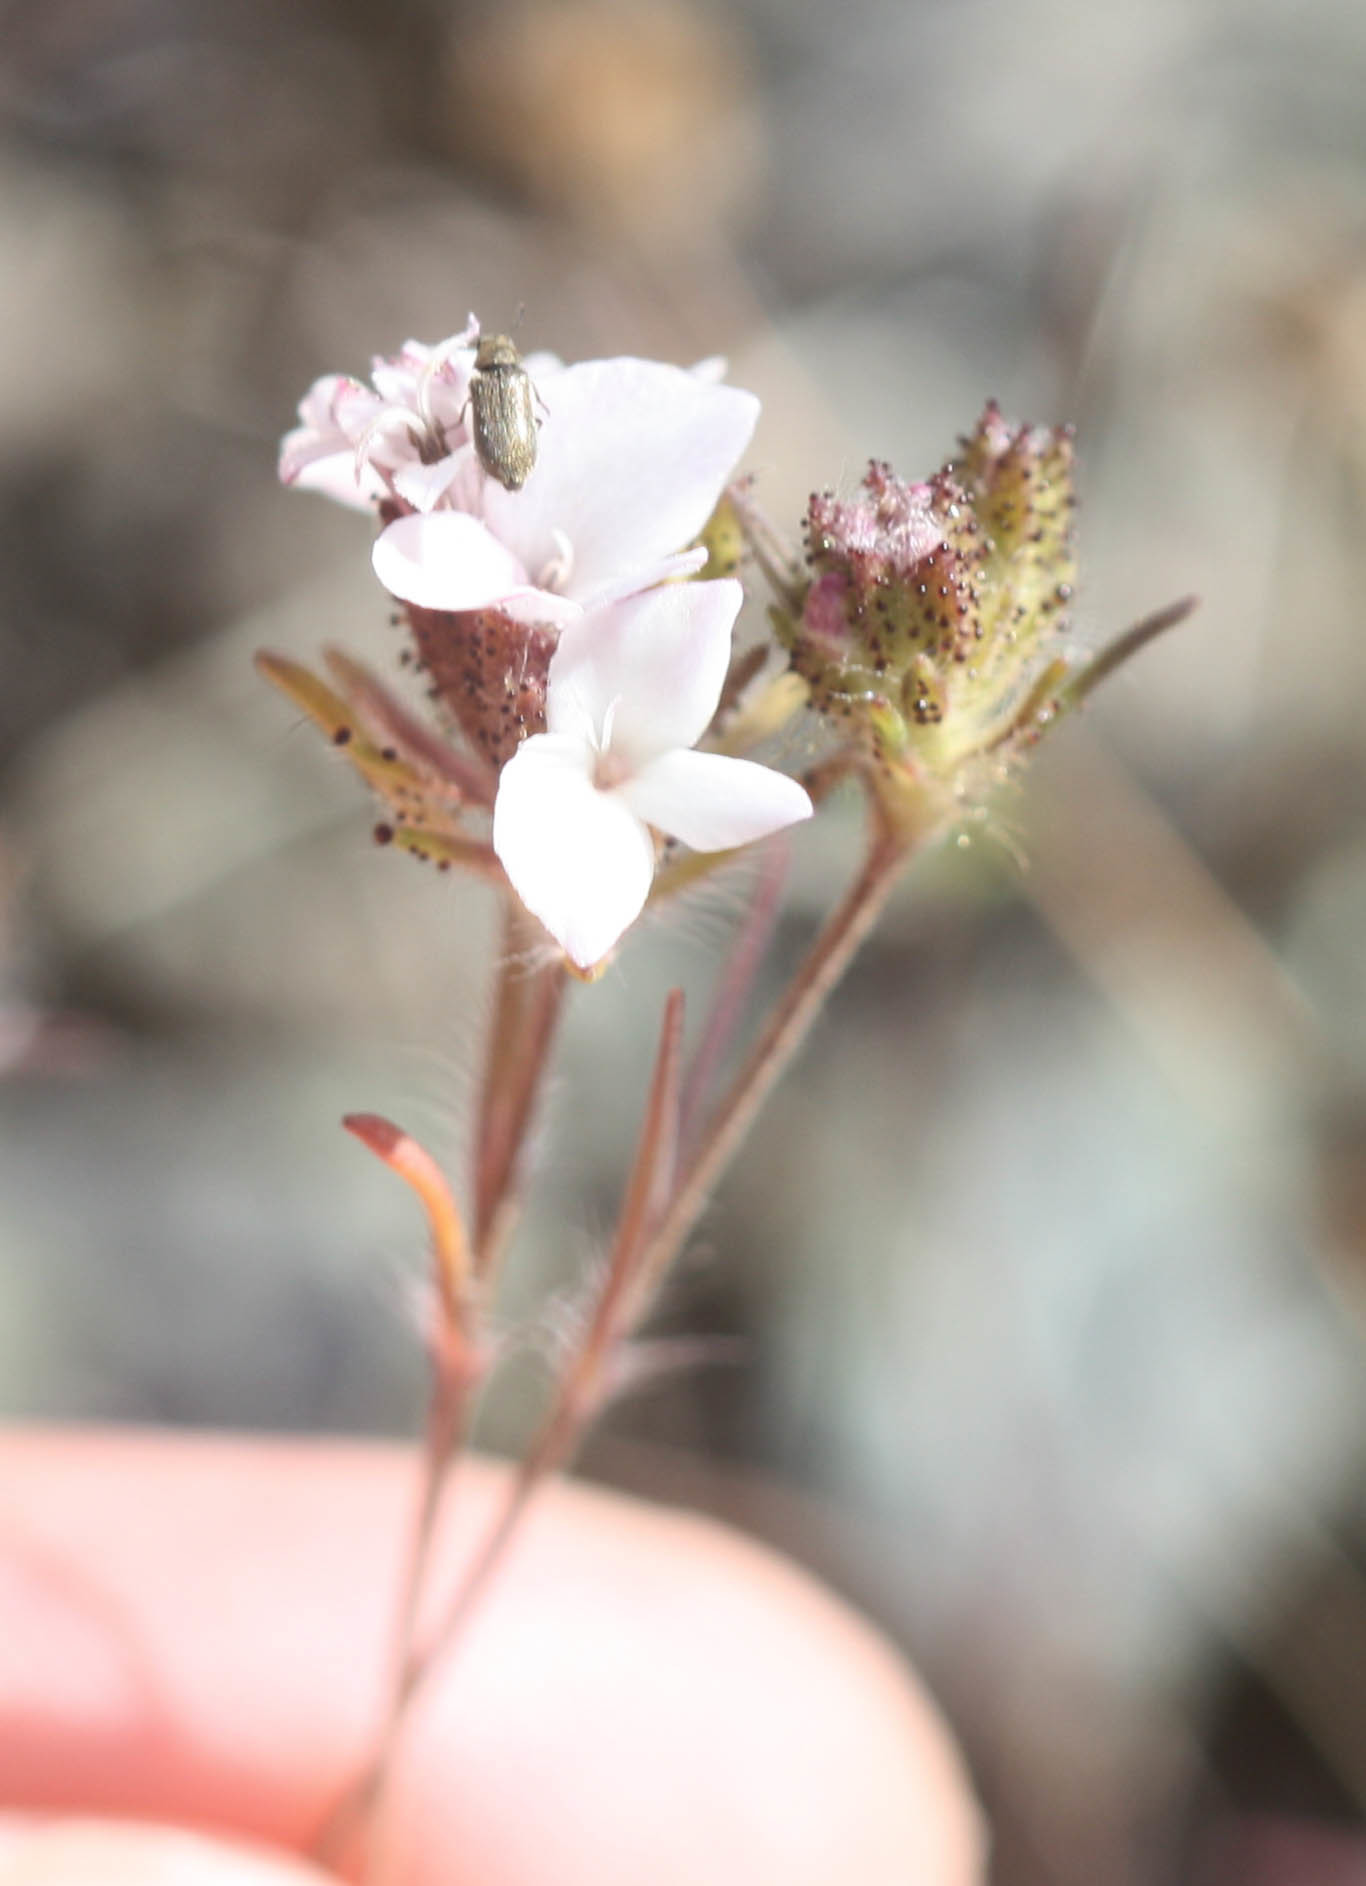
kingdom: Plantae
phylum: Tracheophyta
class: Magnoliopsida
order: Asterales
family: Asteraceae
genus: Calycadenia
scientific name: Calycadenia multiglandulosa
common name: Sticky calycadenia
